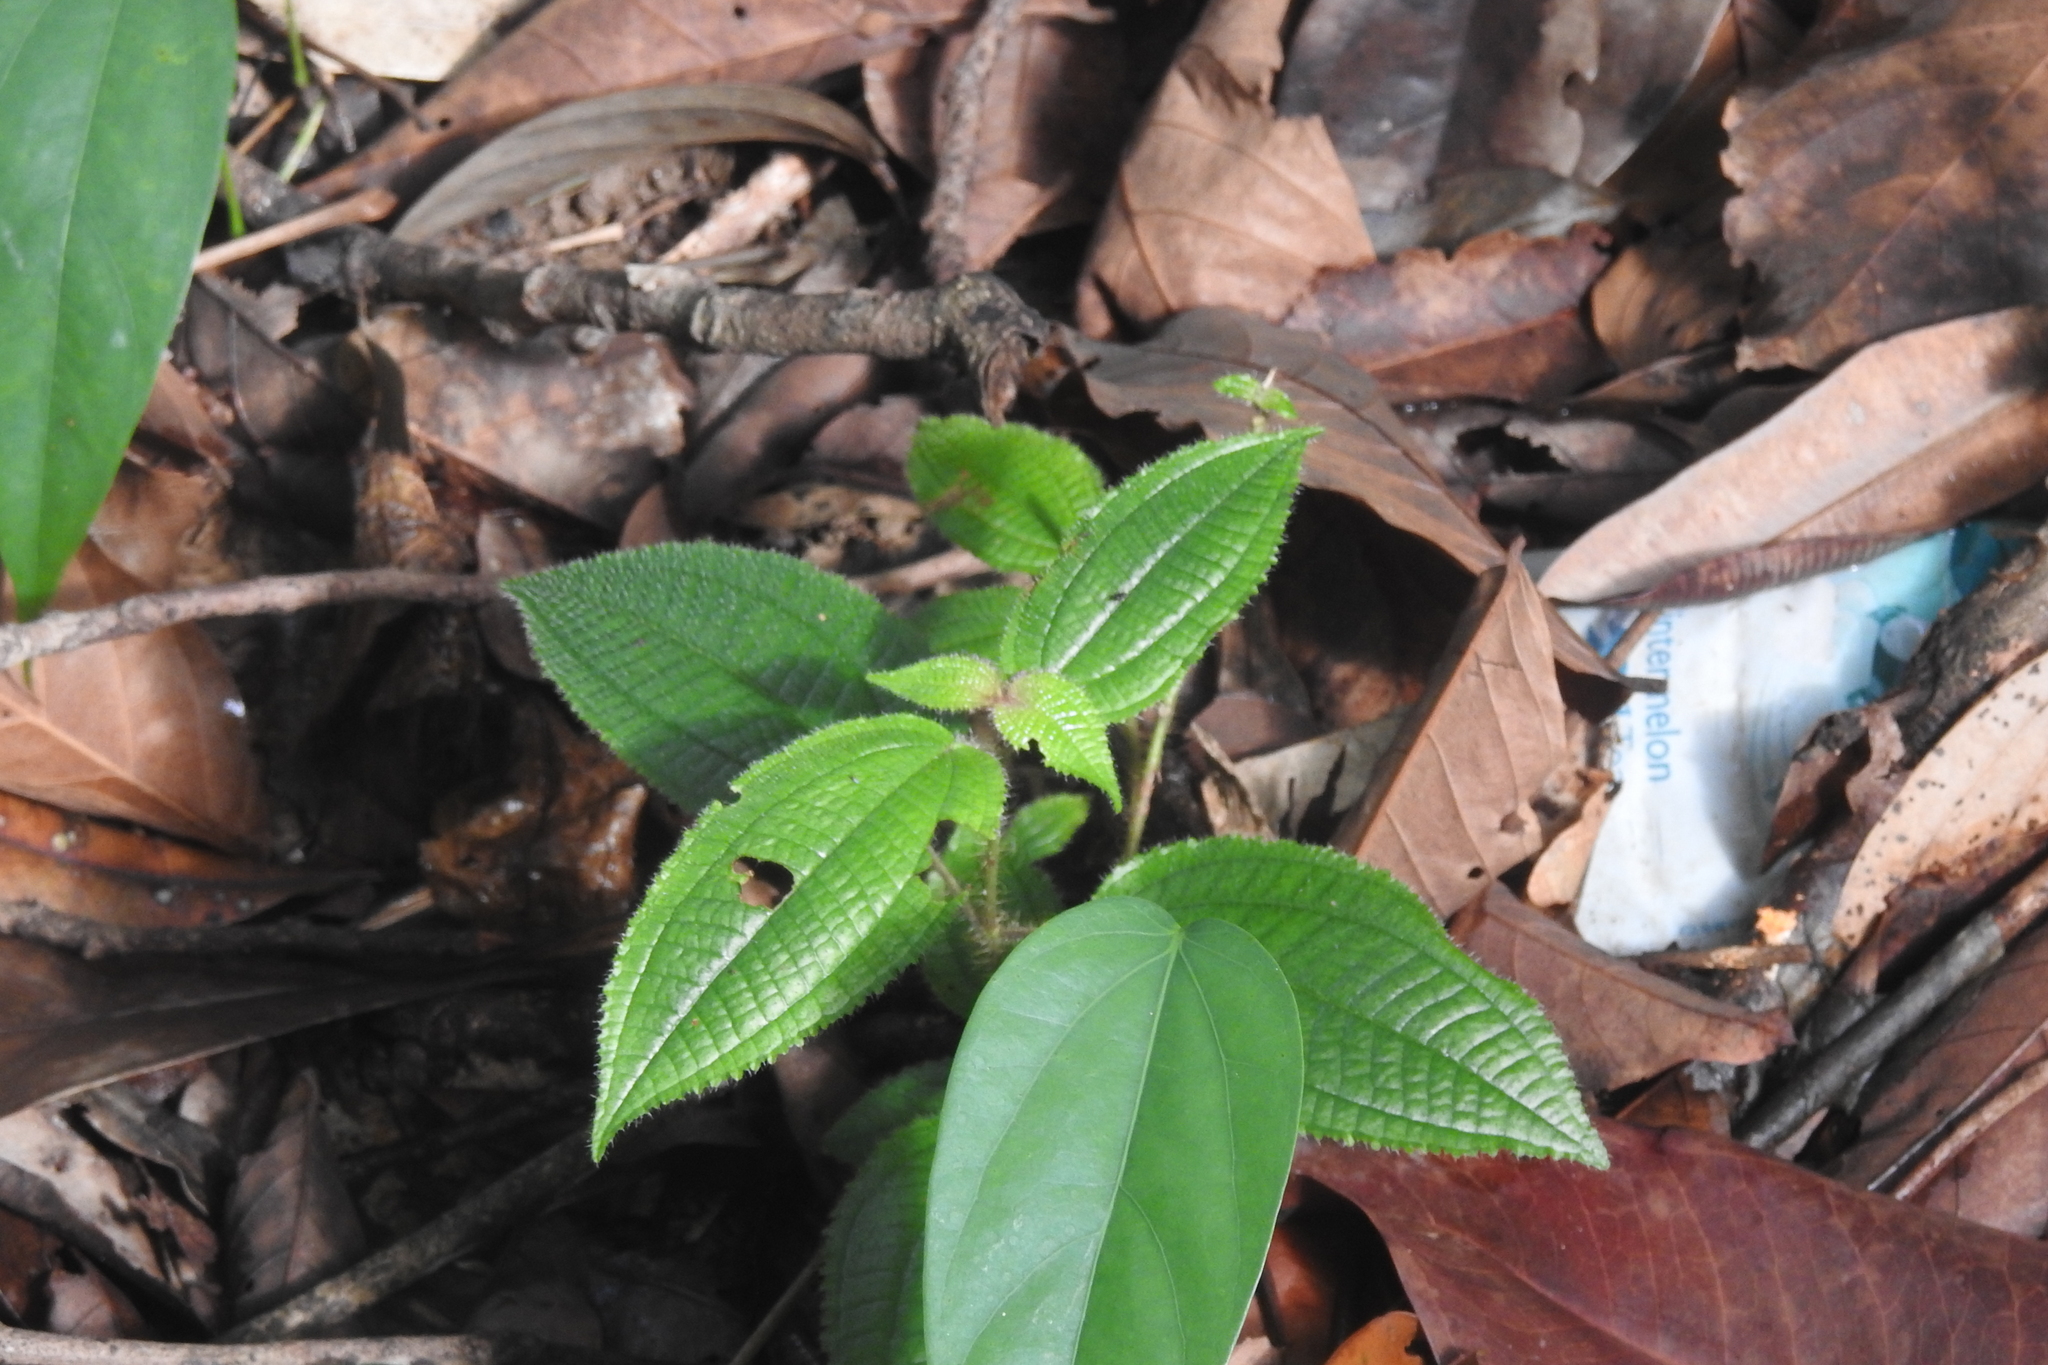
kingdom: Plantae
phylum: Tracheophyta
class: Magnoliopsida
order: Myrtales
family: Melastomataceae
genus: Miconia
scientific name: Miconia crenata
